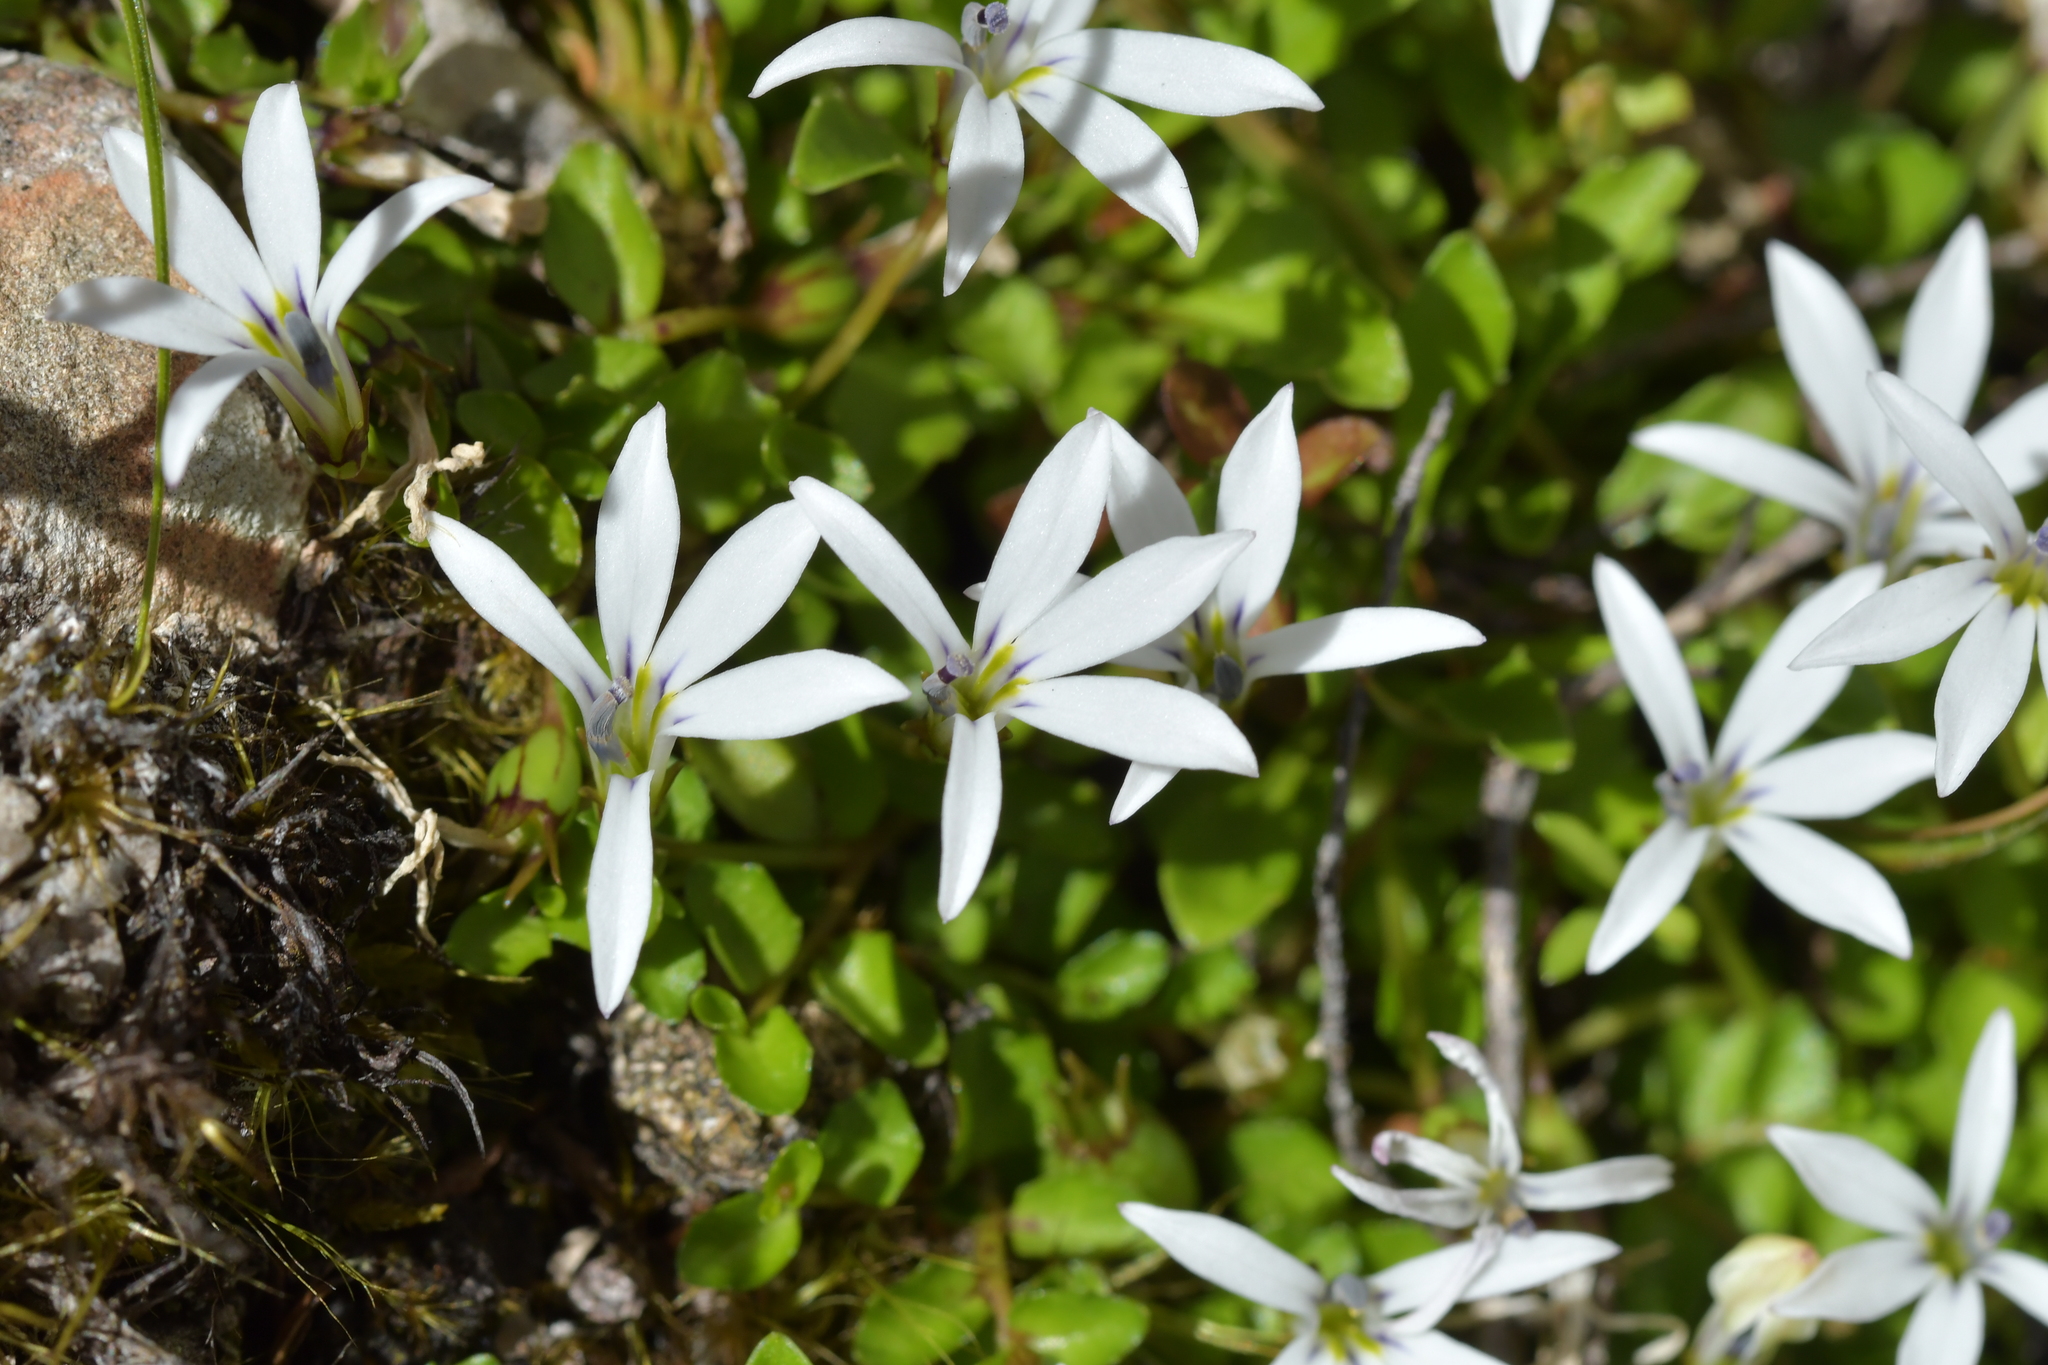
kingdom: Plantae
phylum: Tracheophyta
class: Magnoliopsida
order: Asterales
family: Campanulaceae
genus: Lobelia
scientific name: Lobelia angulata
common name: Lawn lobelia
